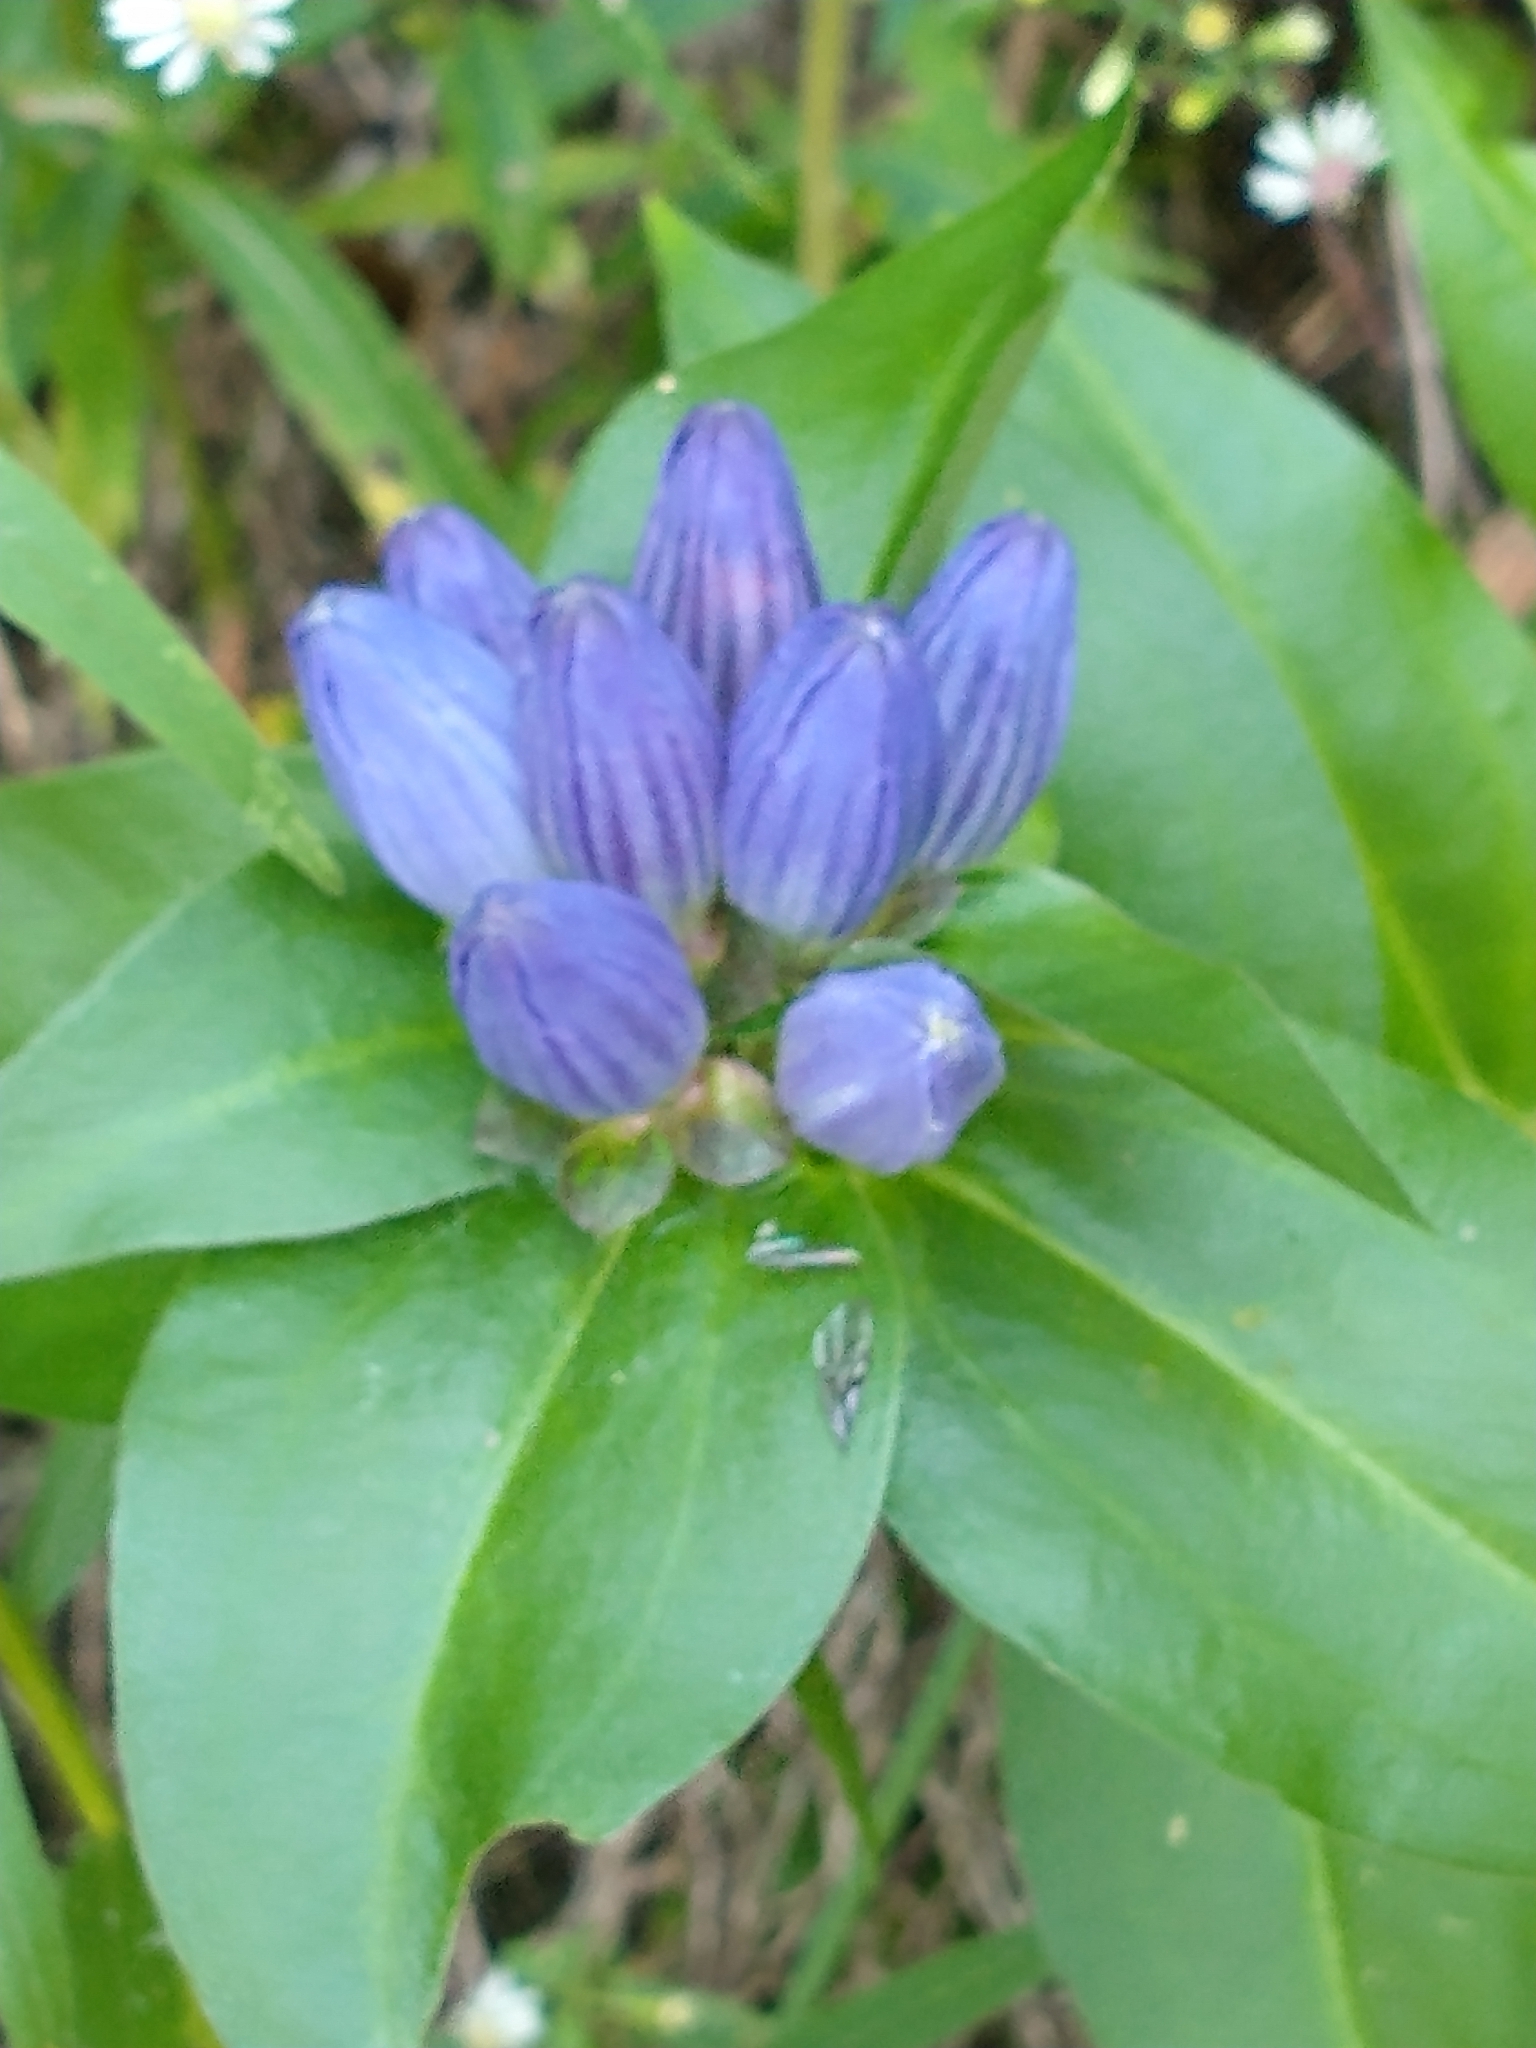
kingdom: Plantae
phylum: Tracheophyta
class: Magnoliopsida
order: Gentianales
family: Gentianaceae
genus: Gentiana
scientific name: Gentiana clausa
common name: Blind gentian
